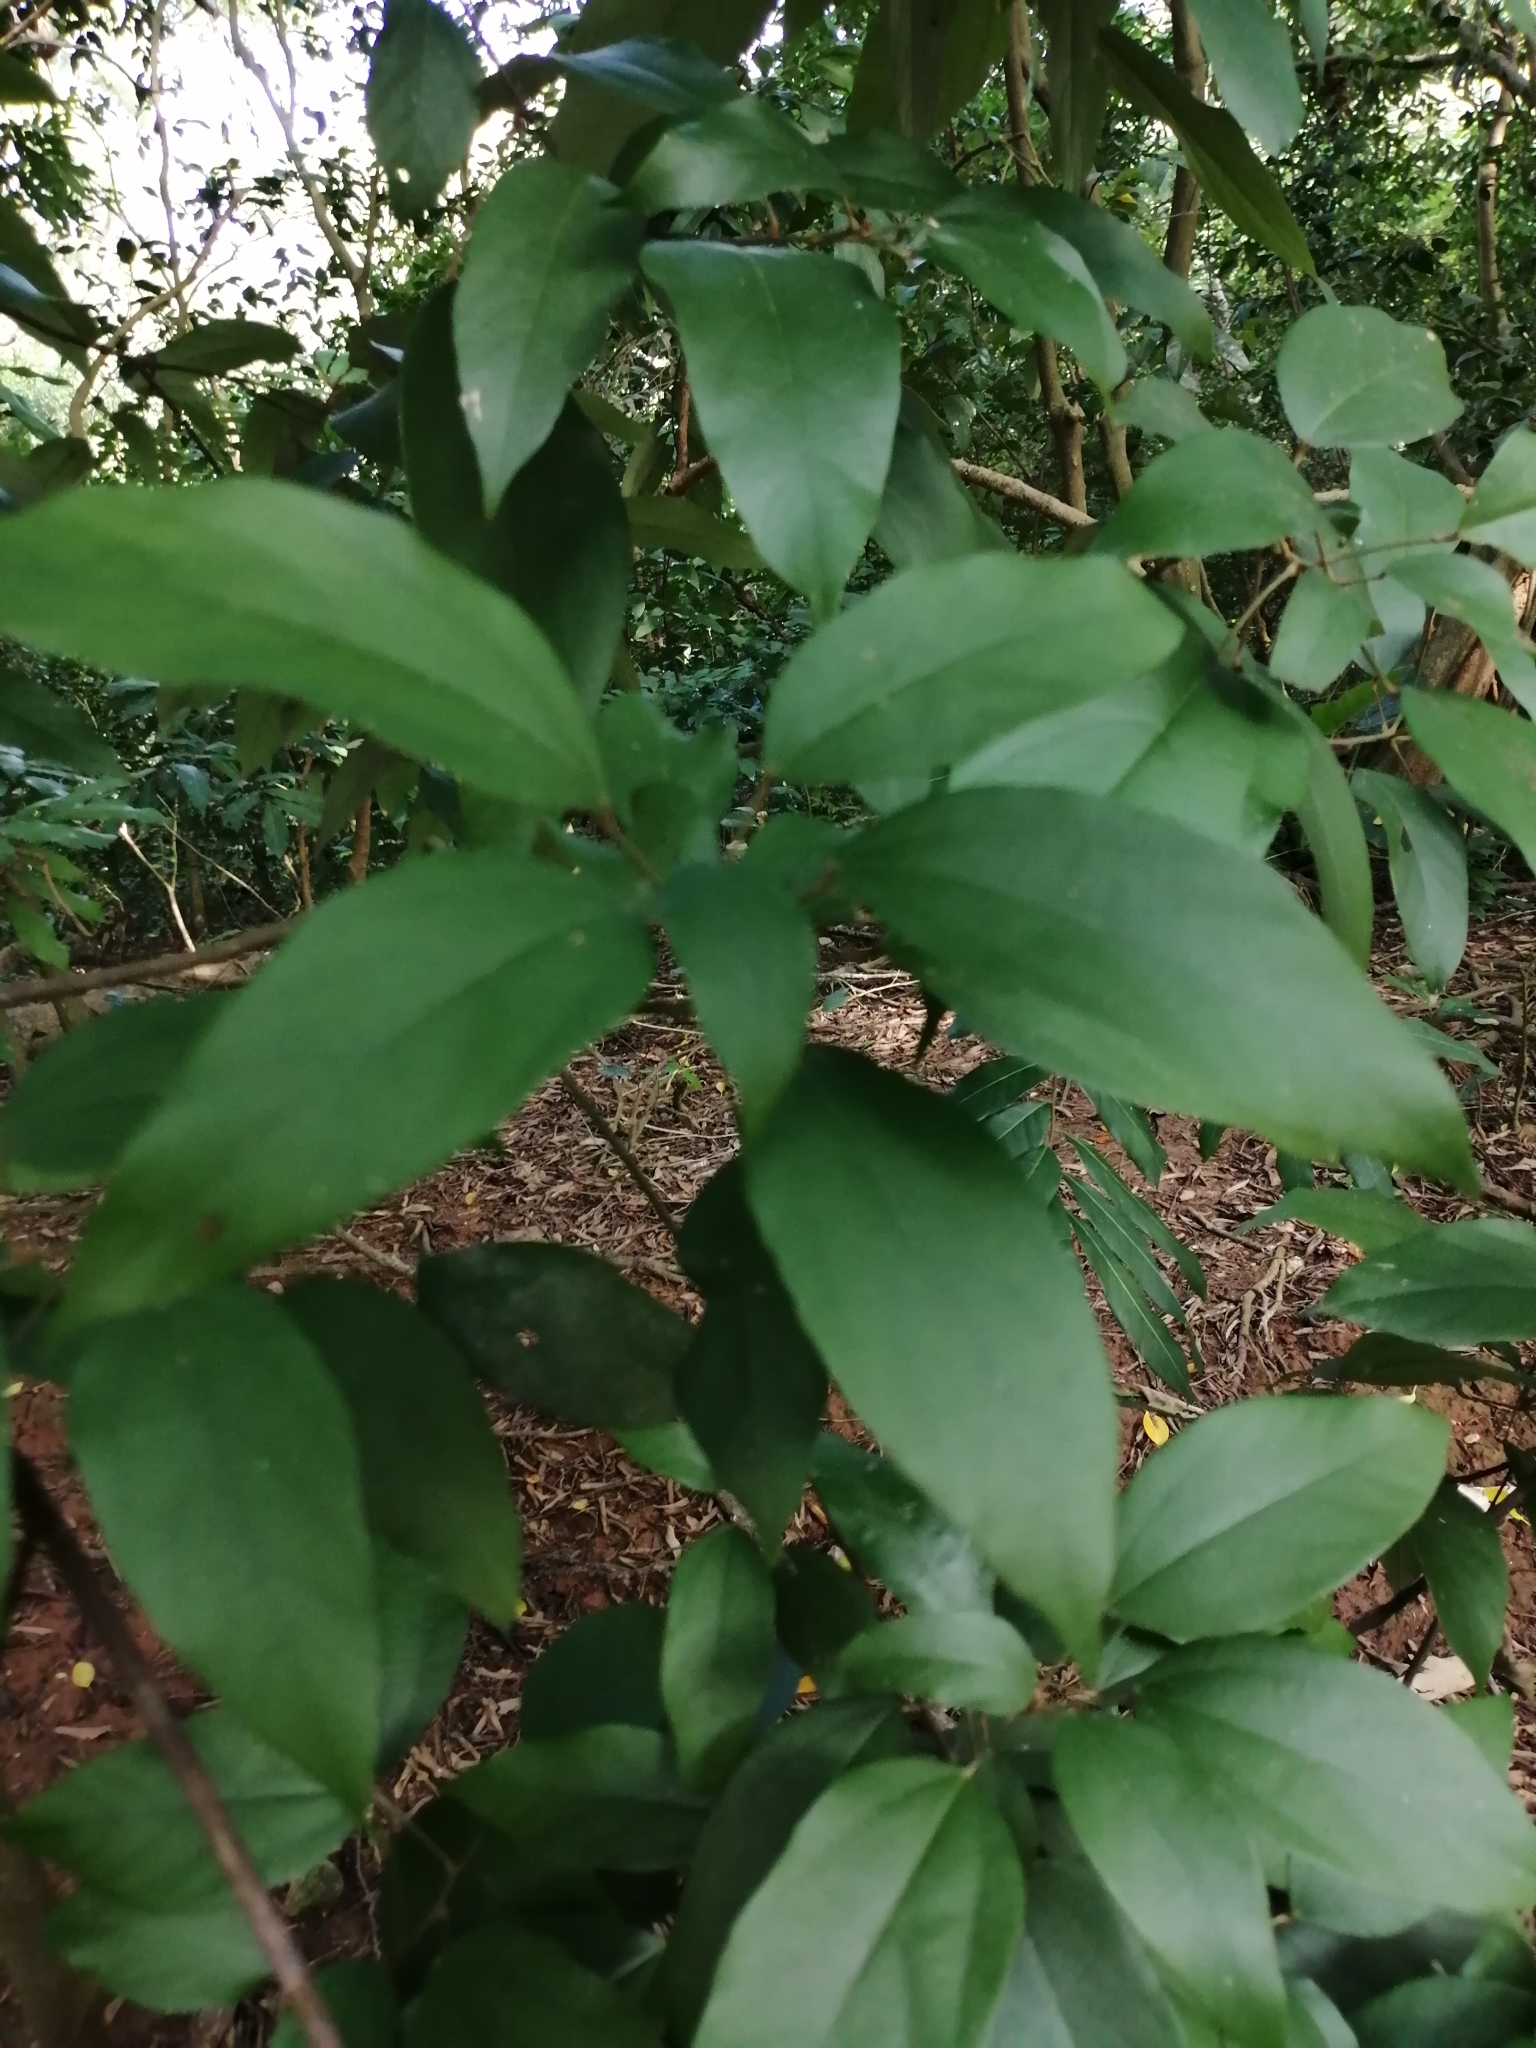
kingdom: Plantae
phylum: Tracheophyta
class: Magnoliopsida
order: Malpighiales
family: Euphorbiaceae
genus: Mallotus
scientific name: Mallotus philippensis
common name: Kamala tree
